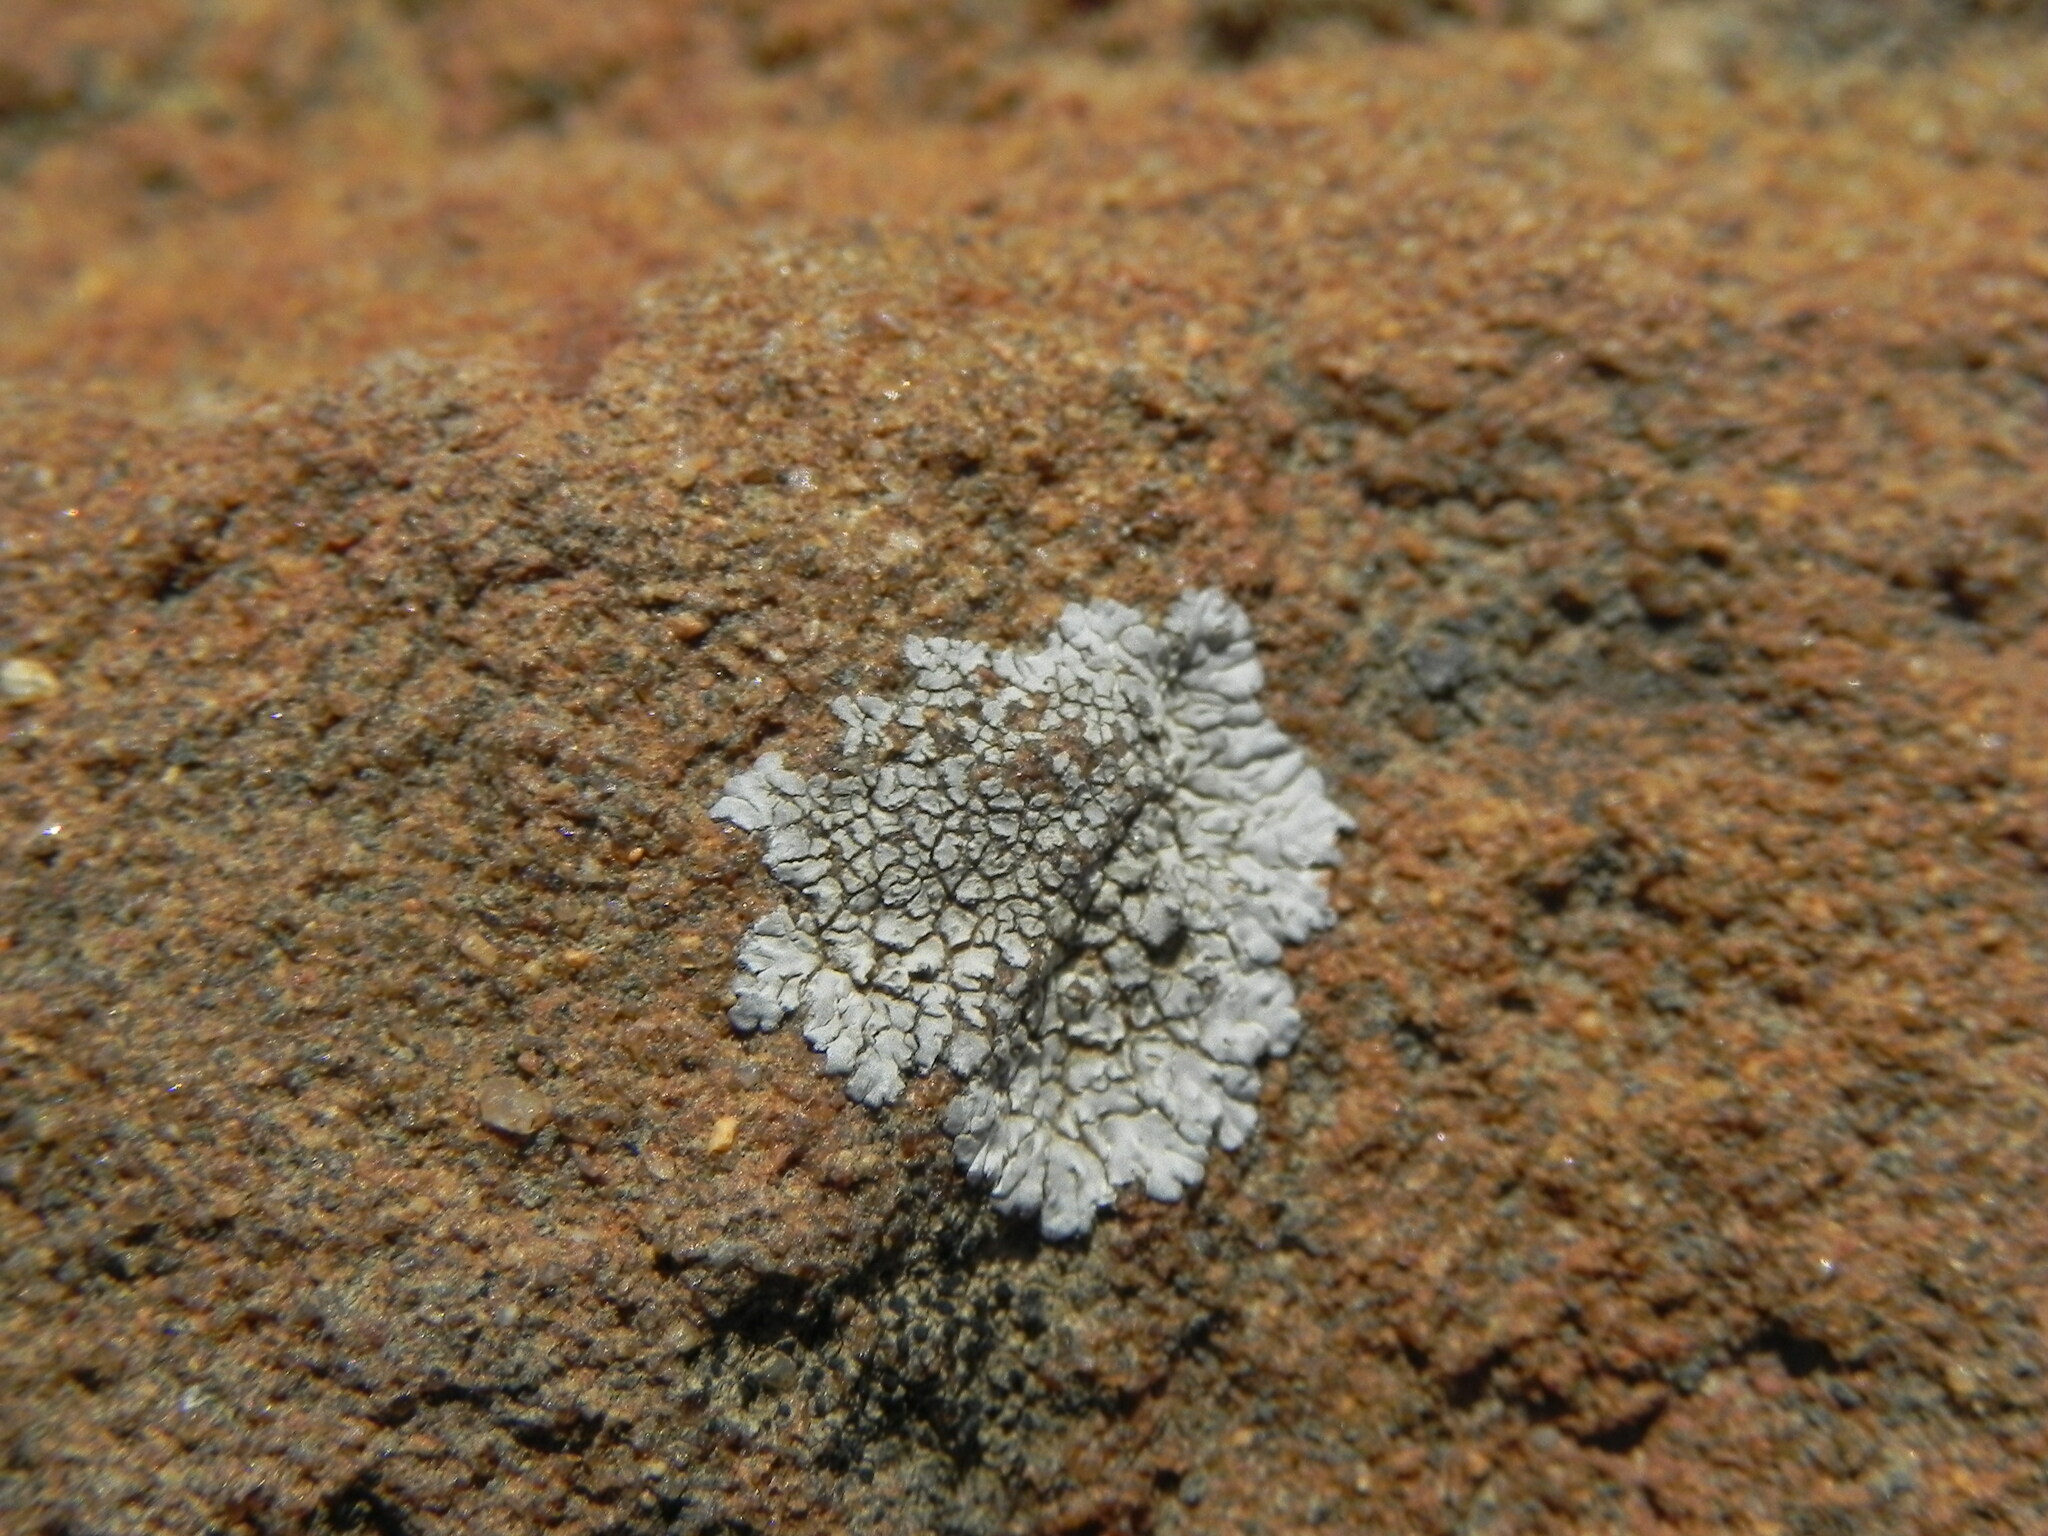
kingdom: Fungi
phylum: Ascomycota
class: Lecanoromycetes
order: Caliciales
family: Caliciaceae
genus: Dimelaena
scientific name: Dimelaena radiata
